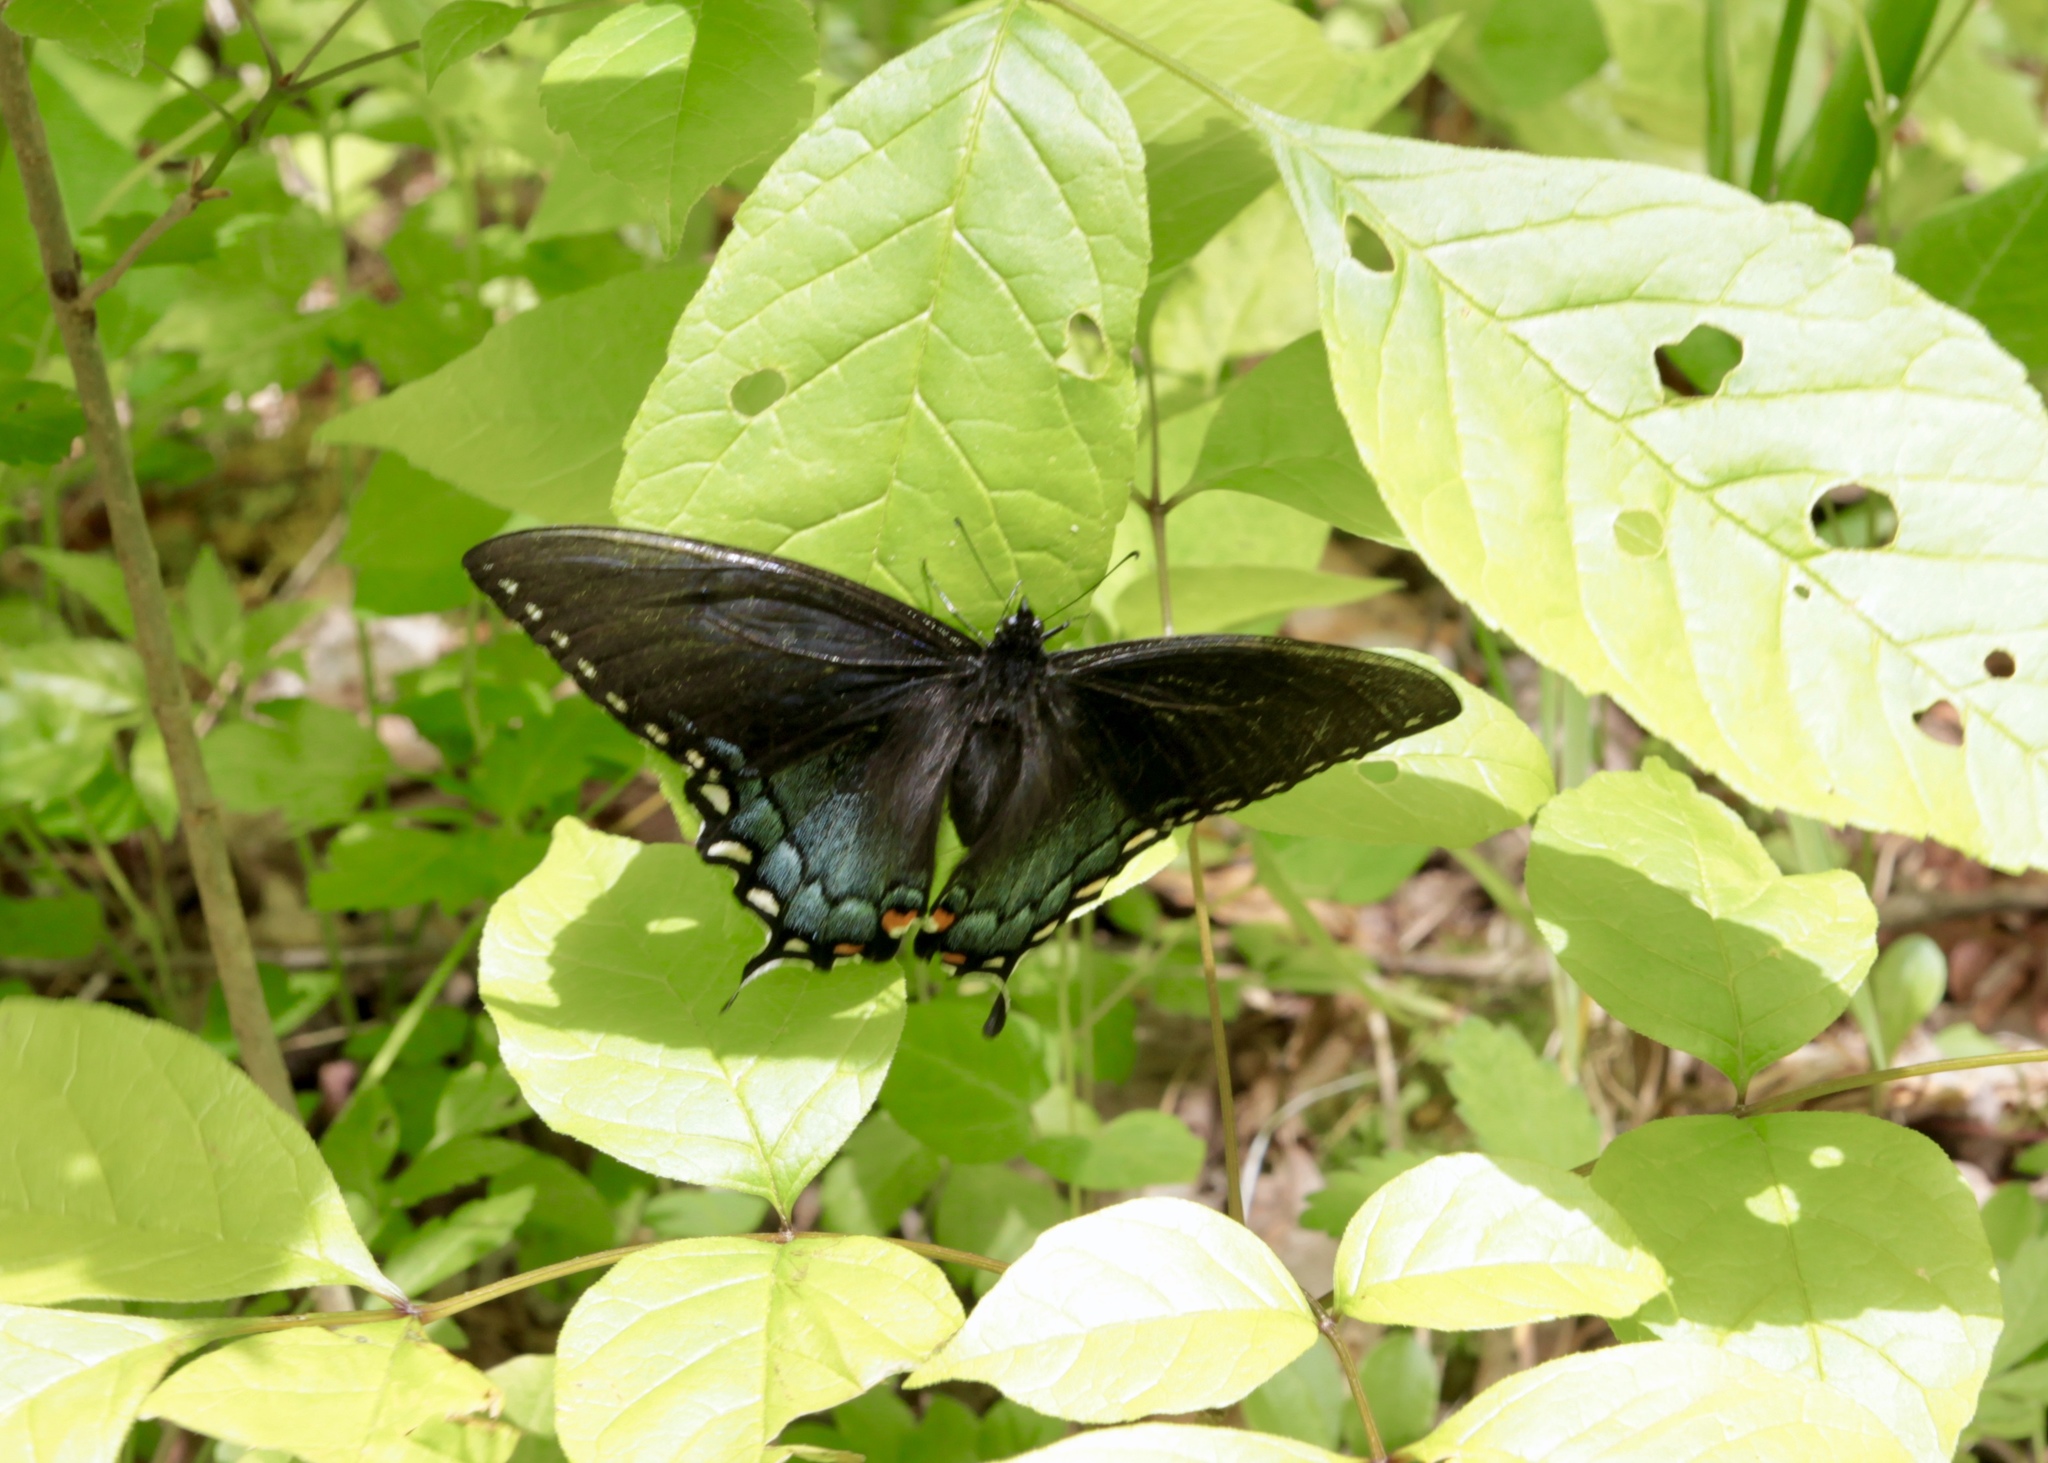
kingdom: Animalia
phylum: Arthropoda
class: Insecta
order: Lepidoptera
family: Papilionidae
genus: Papilio
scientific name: Papilio glaucus
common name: Tiger swallowtail
